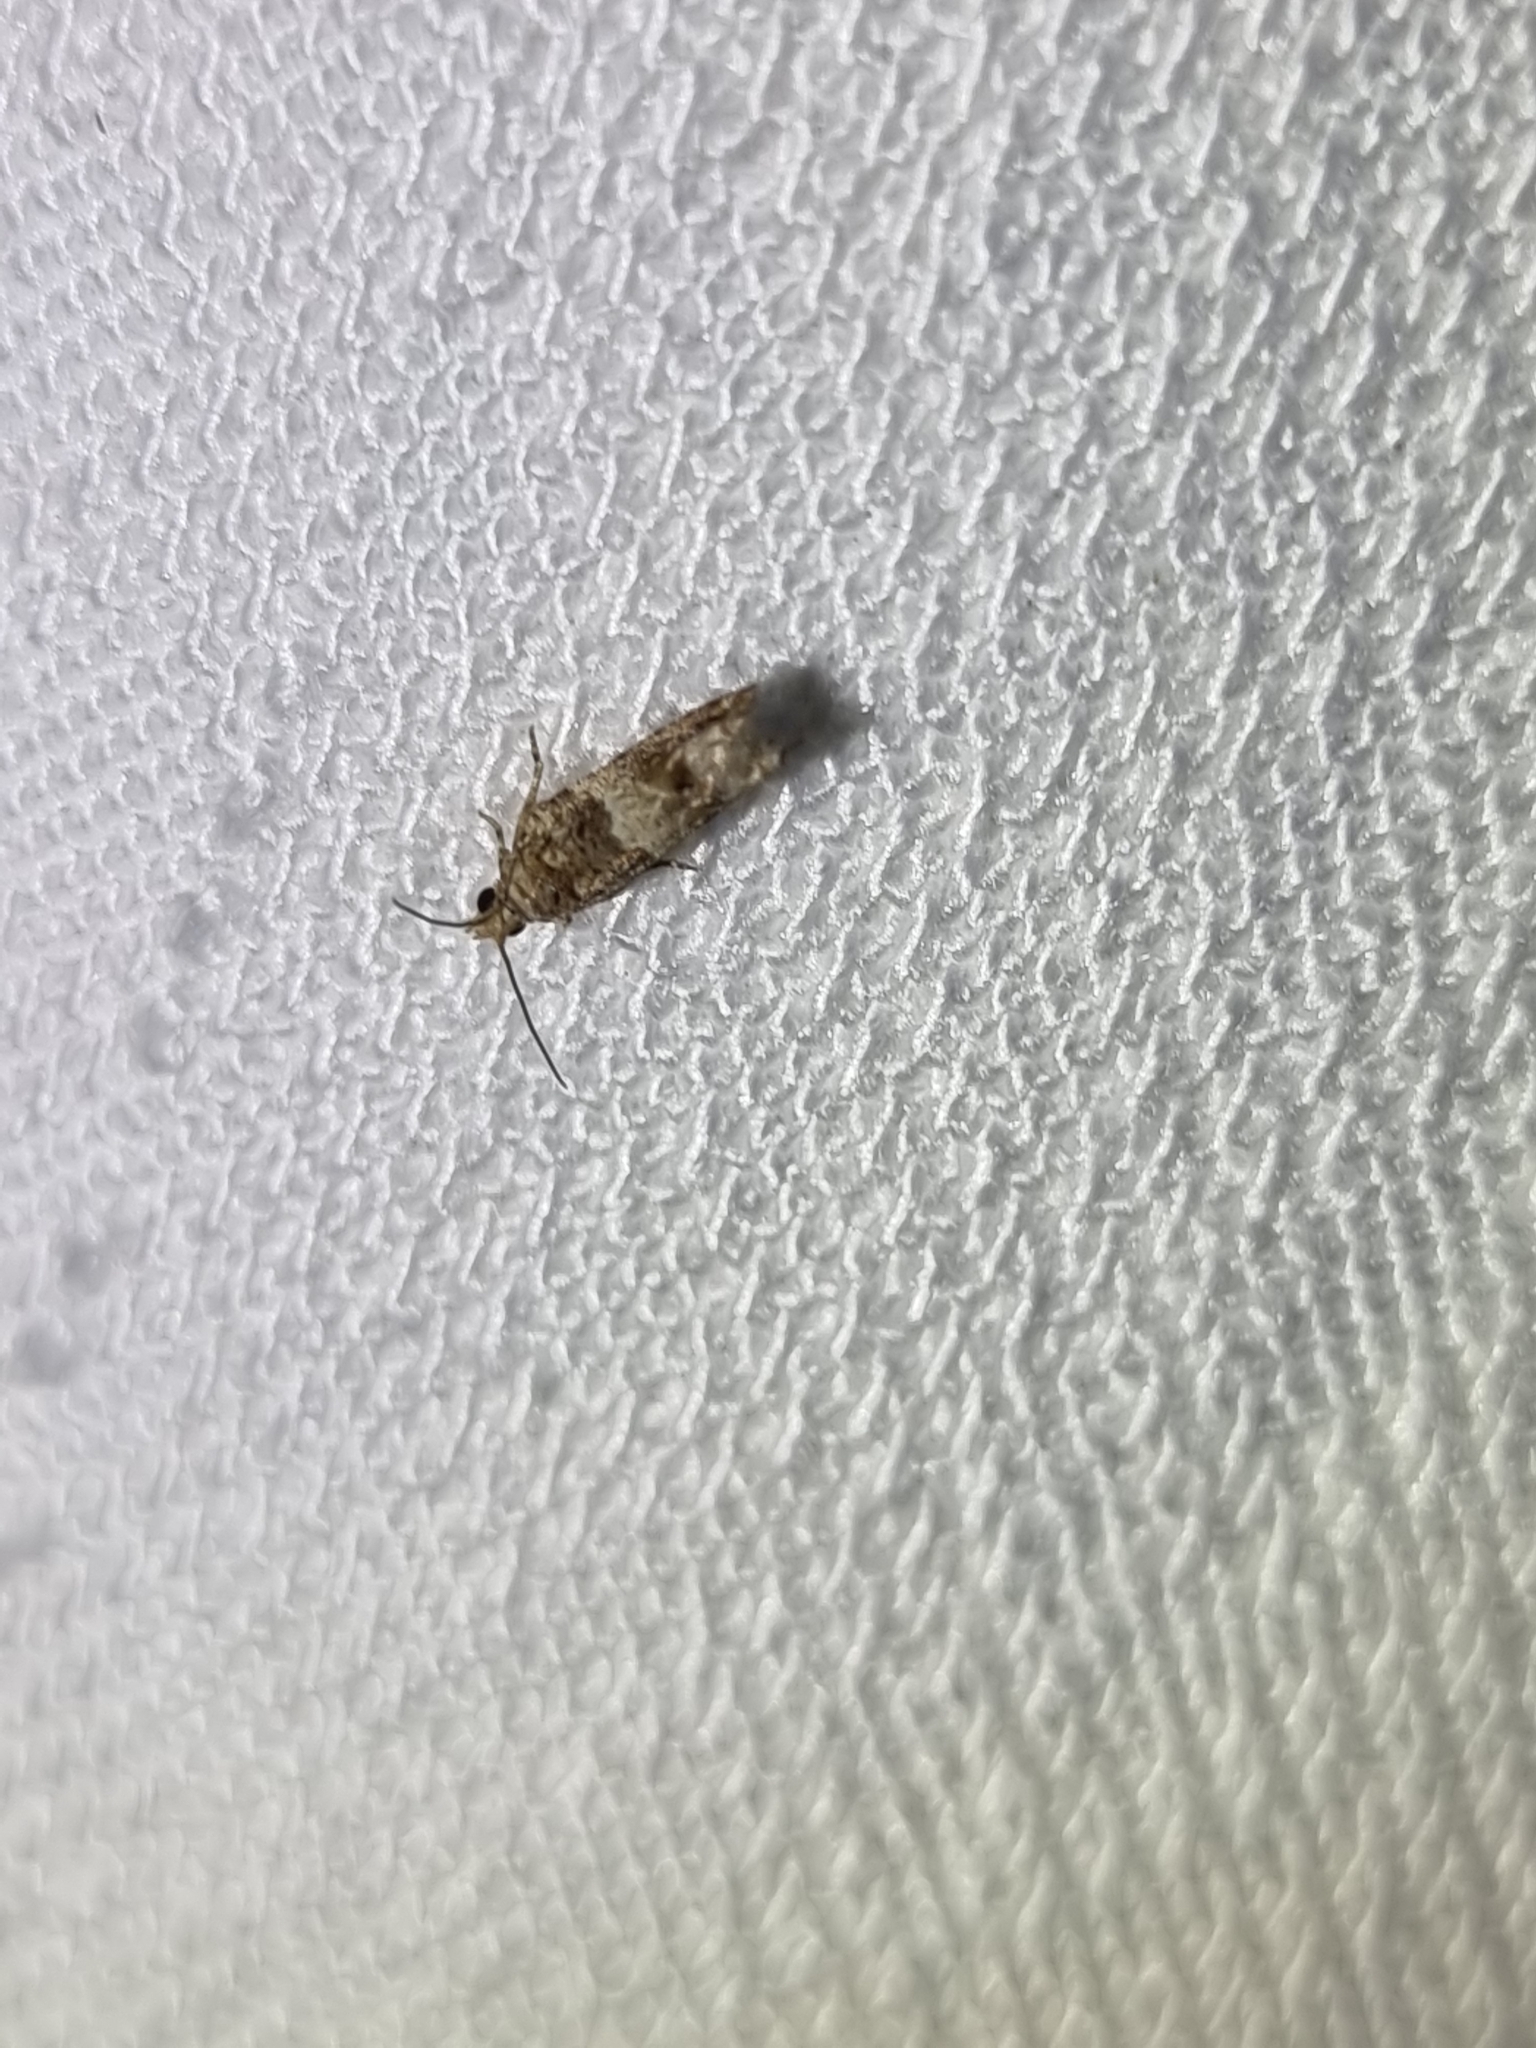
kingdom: Animalia
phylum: Arthropoda
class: Insecta
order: Lepidoptera
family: Tortricidae
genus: Crocidosema
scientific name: Crocidosema plebejana
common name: Southern bell
